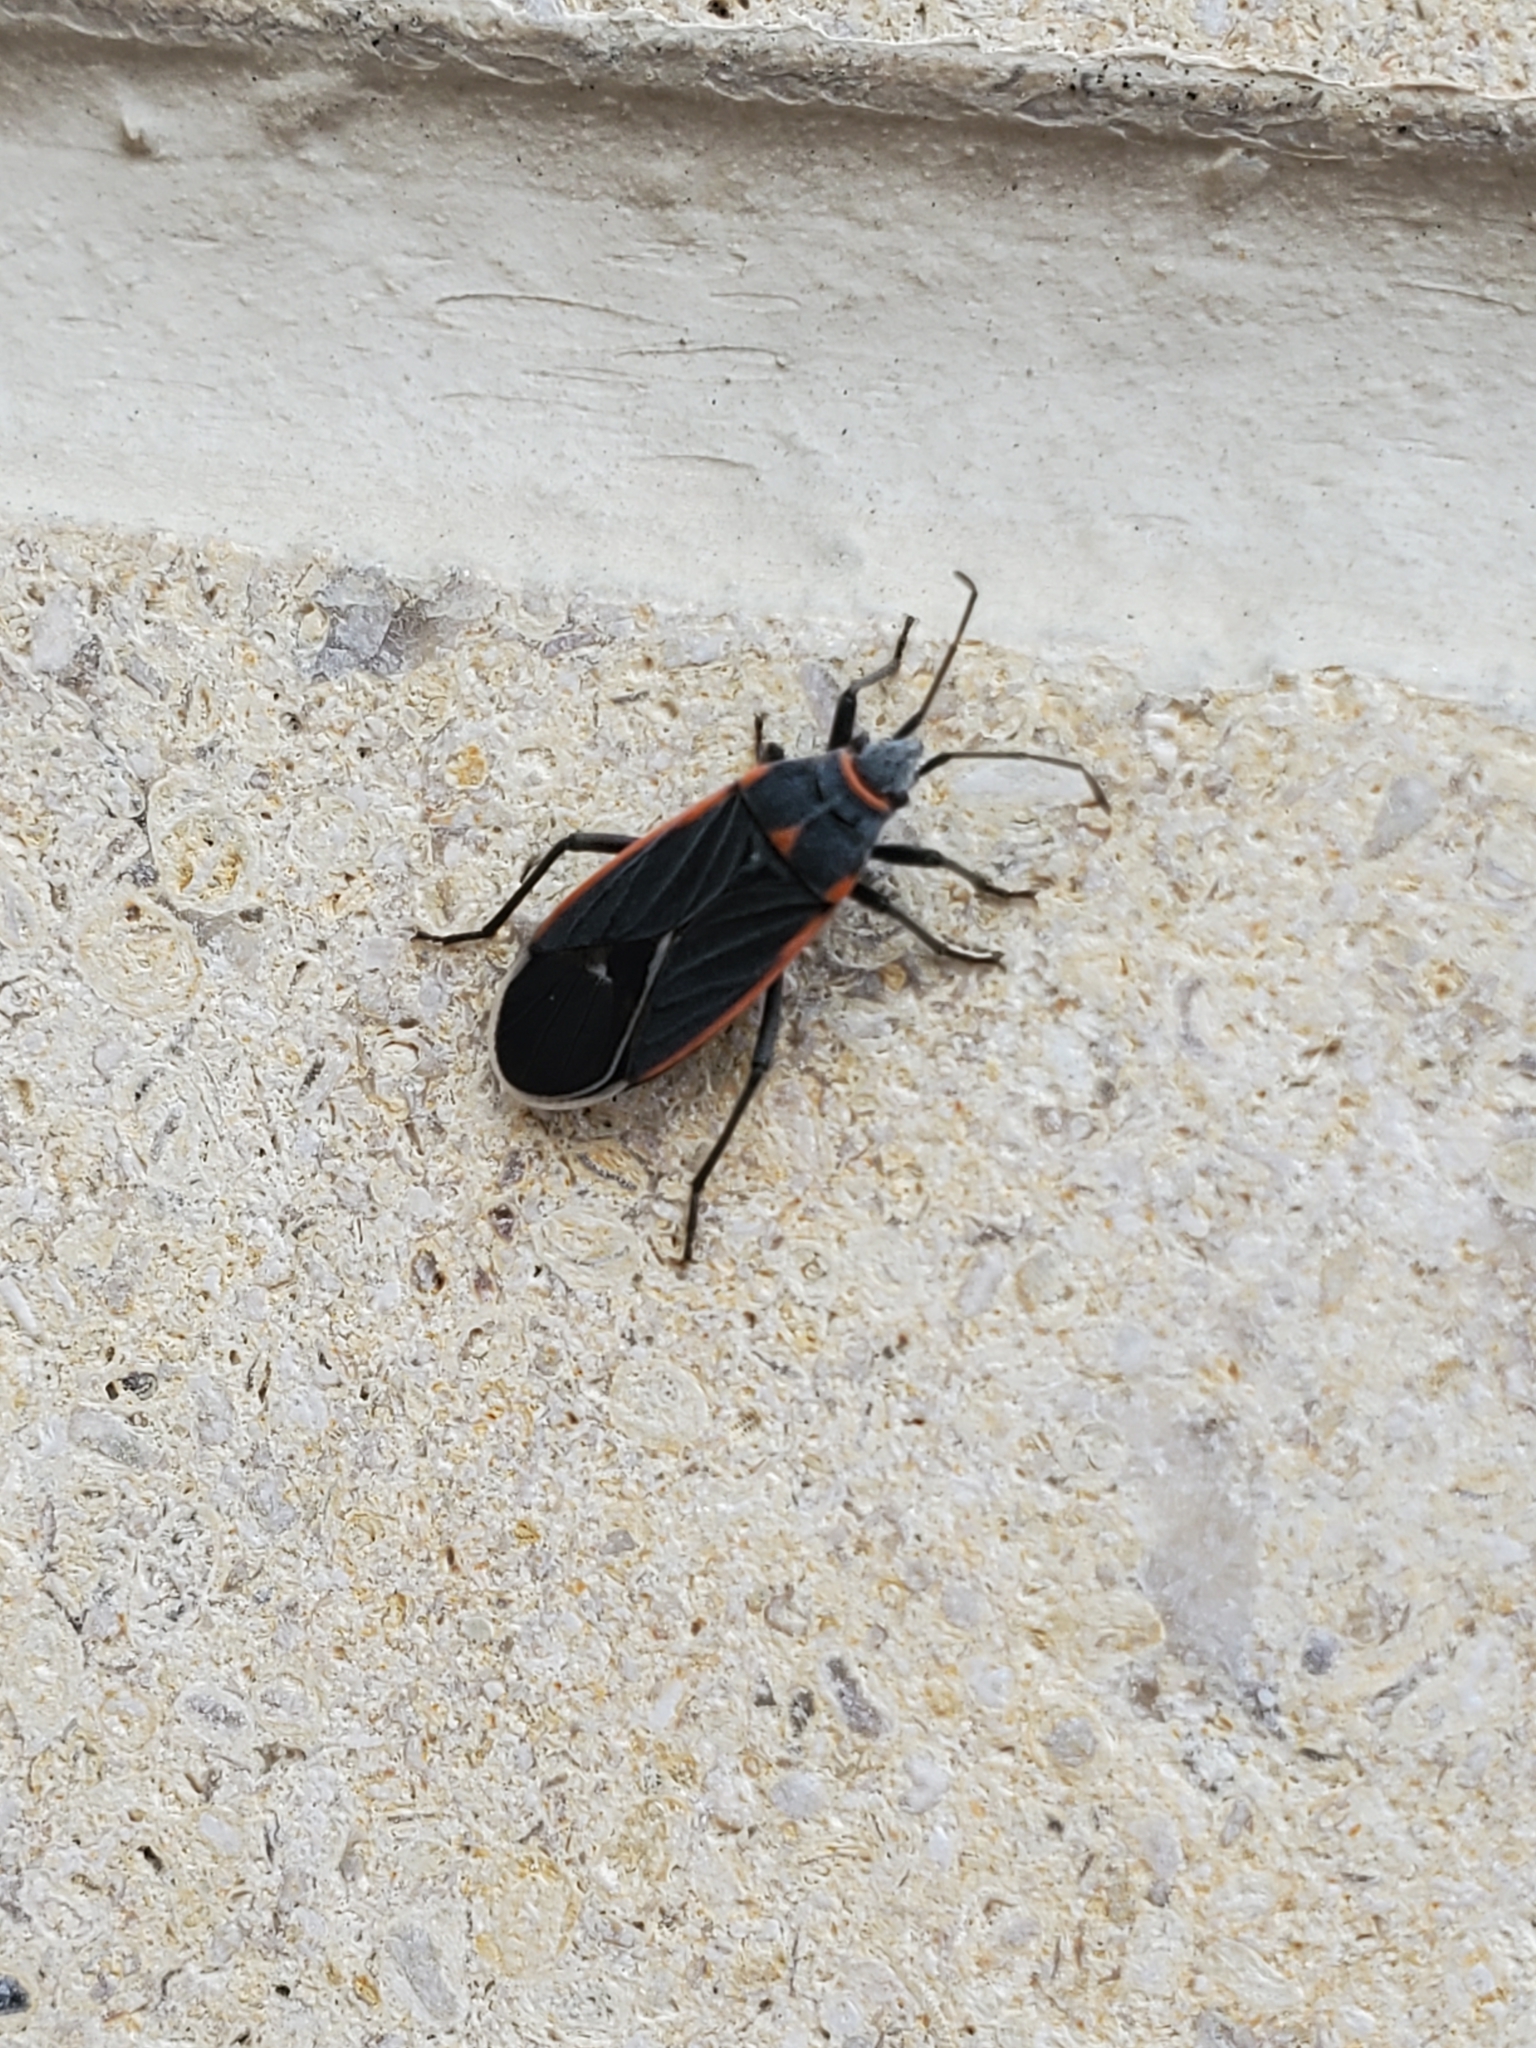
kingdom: Animalia
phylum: Arthropoda
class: Insecta
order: Hemiptera
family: Lygaeidae
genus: Melacoryphus
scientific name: Melacoryphus lateralis
